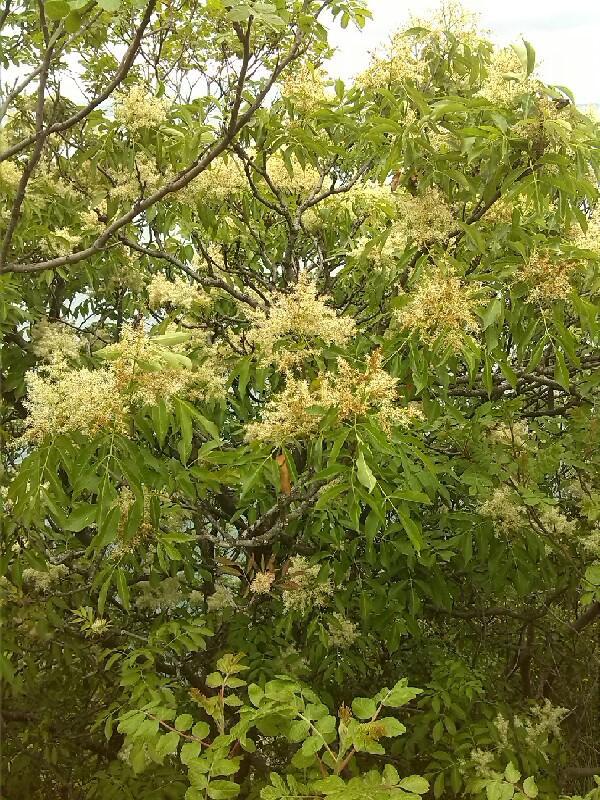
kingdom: Plantae
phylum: Tracheophyta
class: Magnoliopsida
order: Lamiales
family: Oleaceae
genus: Fraxinus
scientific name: Fraxinus ornus
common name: Manna ash
